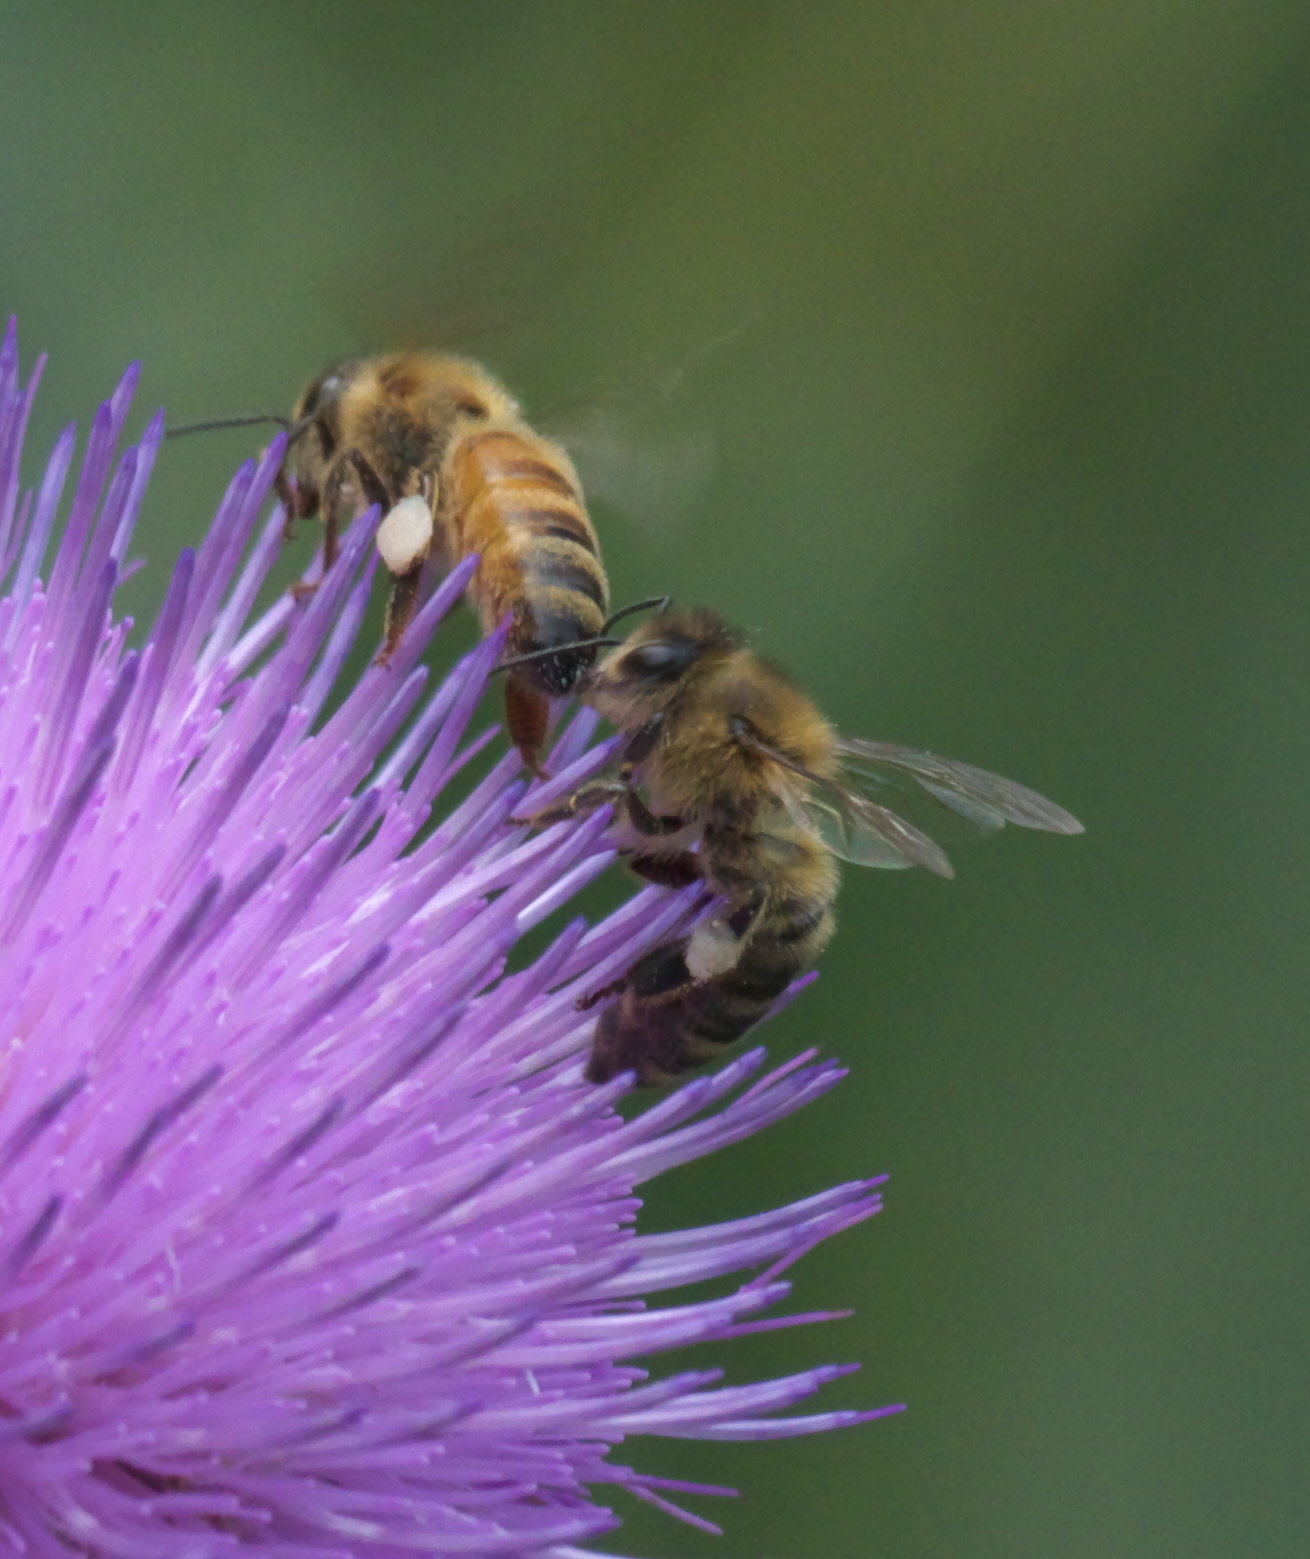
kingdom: Animalia
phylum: Arthropoda
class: Insecta
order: Hymenoptera
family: Apidae
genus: Apis
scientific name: Apis mellifera
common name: Honey bee
